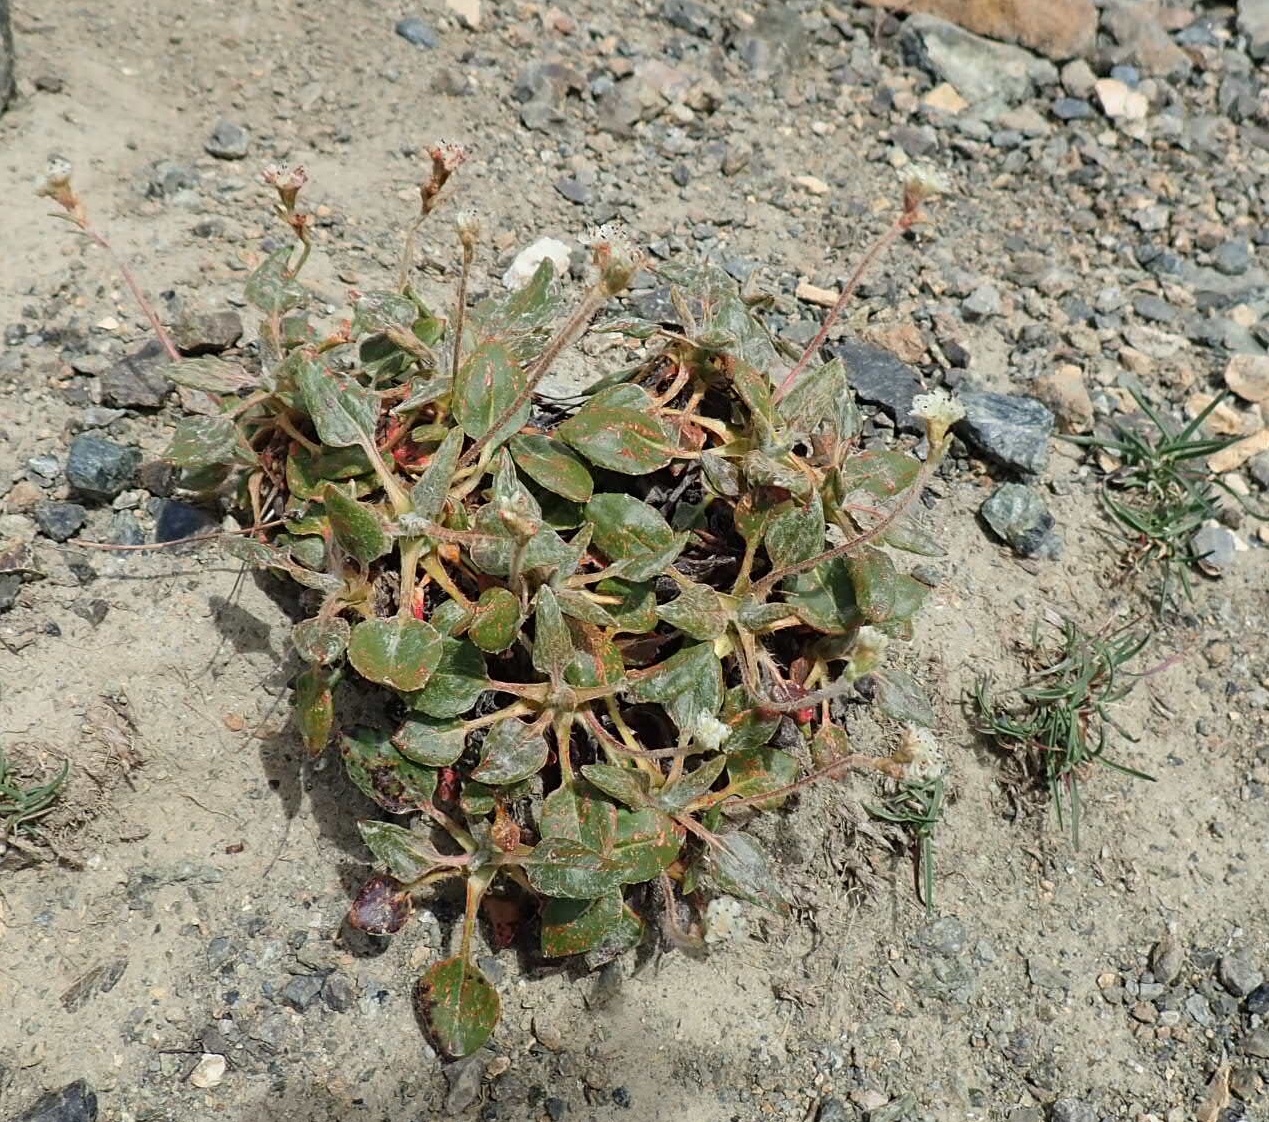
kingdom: Plantae
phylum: Tracheophyta
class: Magnoliopsida
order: Caryophyllales
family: Polygonaceae
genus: Eriogonum
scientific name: Eriogonum pyrolifolium
